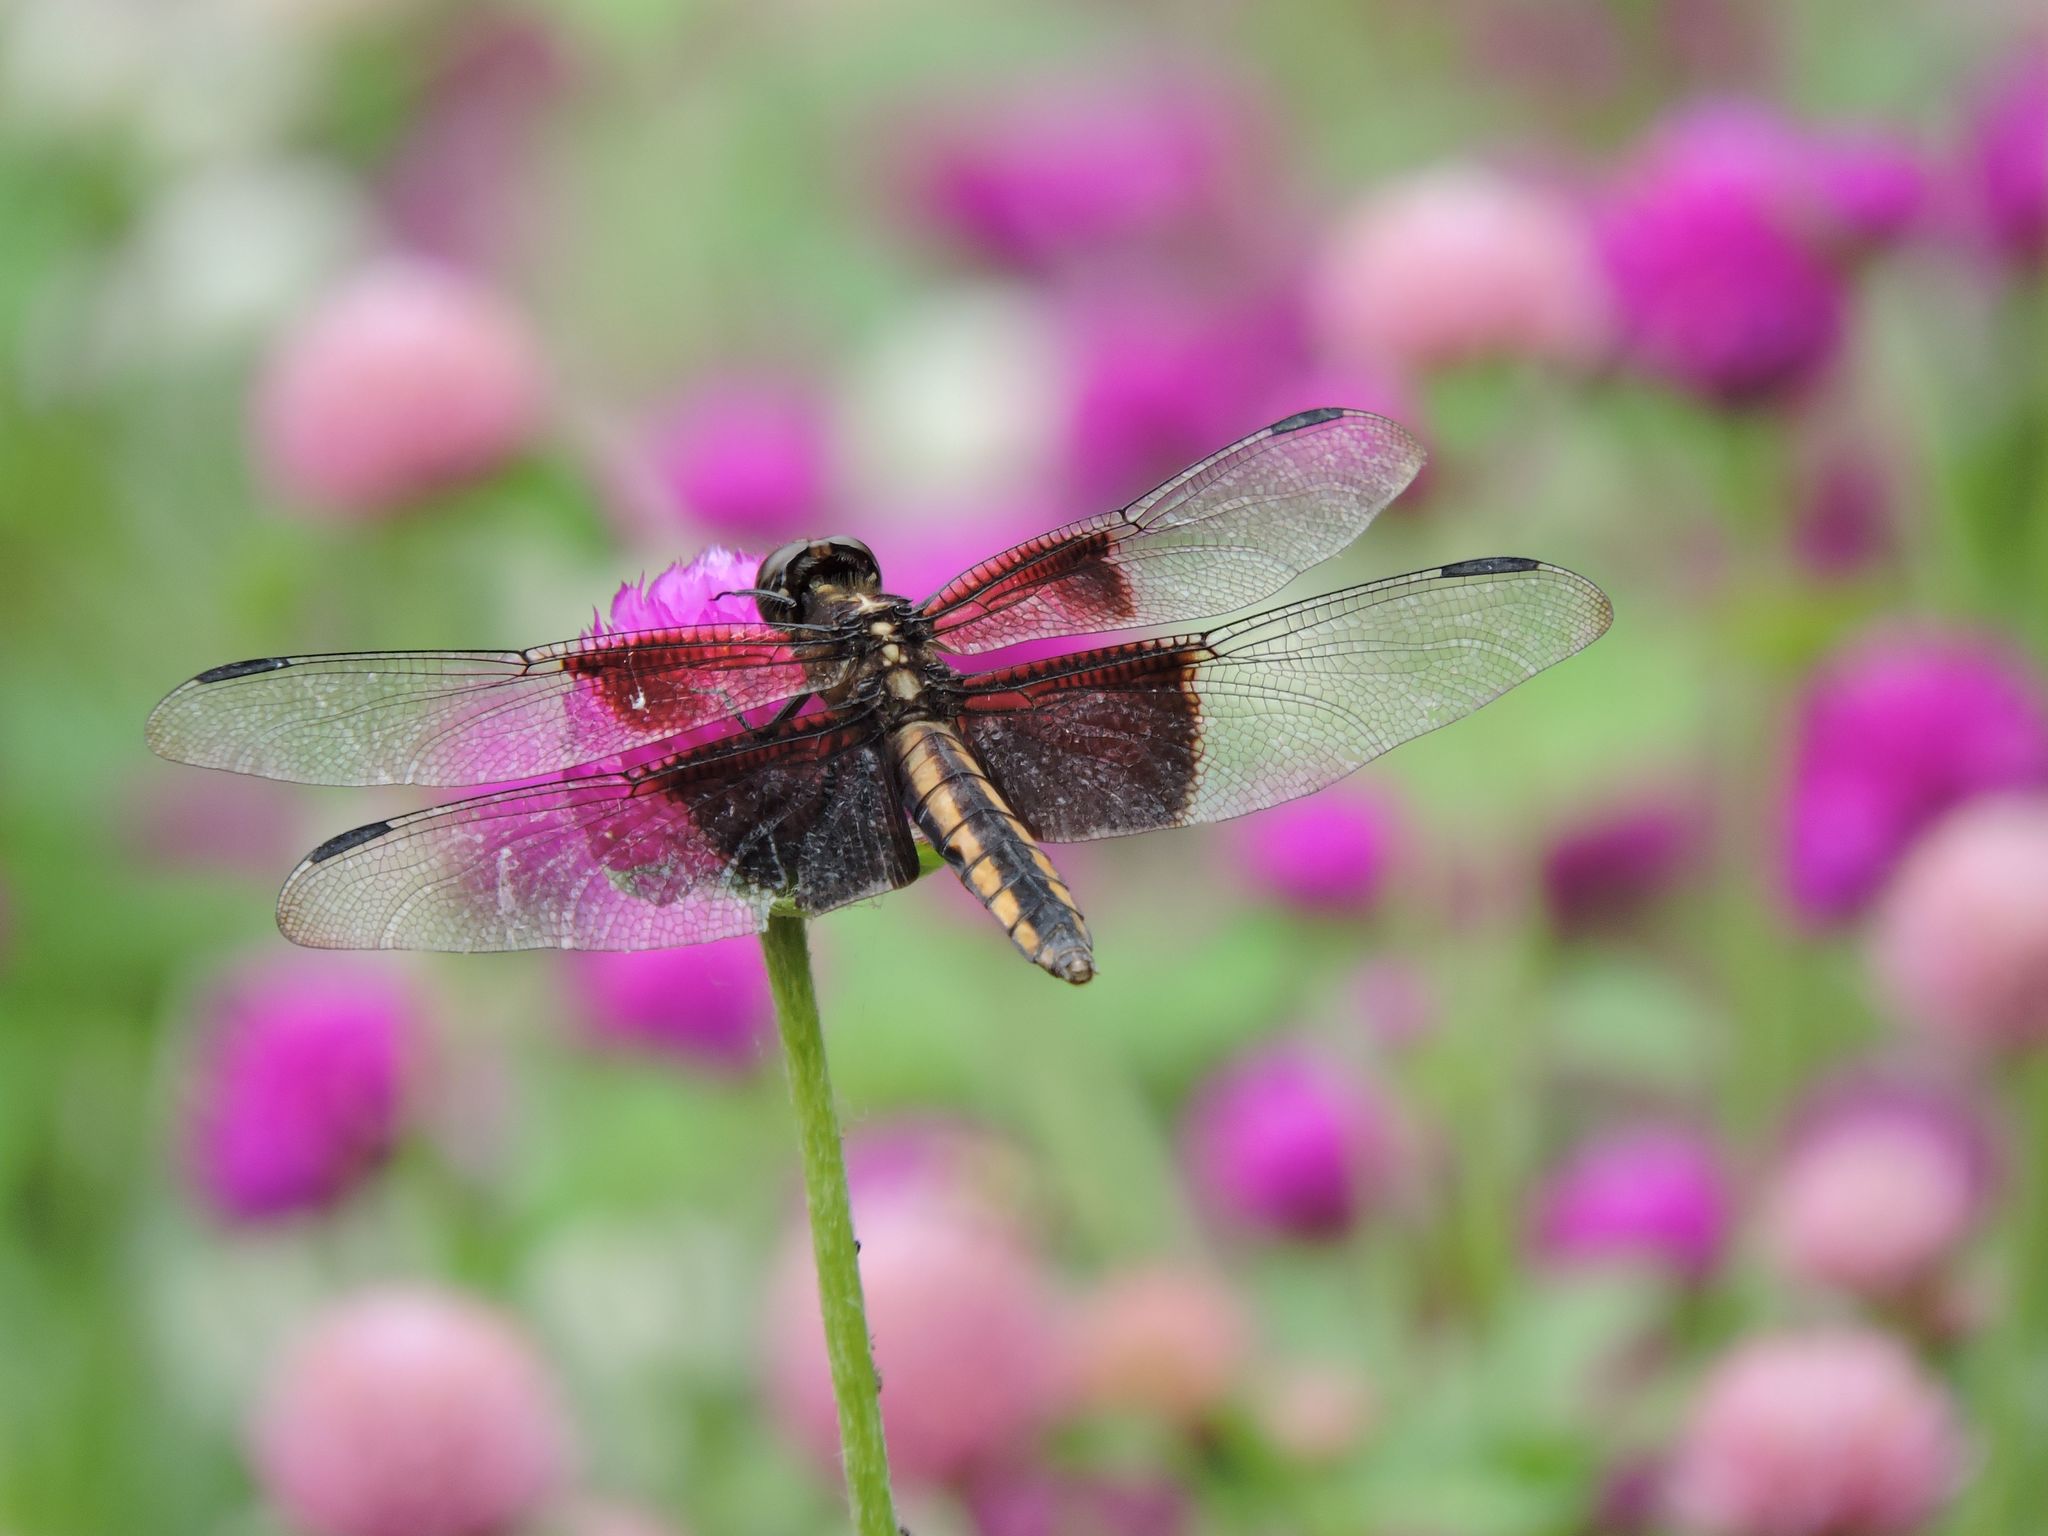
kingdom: Animalia
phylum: Arthropoda
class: Insecta
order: Odonata
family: Libellulidae
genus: Libellula
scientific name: Libellula luctuosa
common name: Widow skimmer
